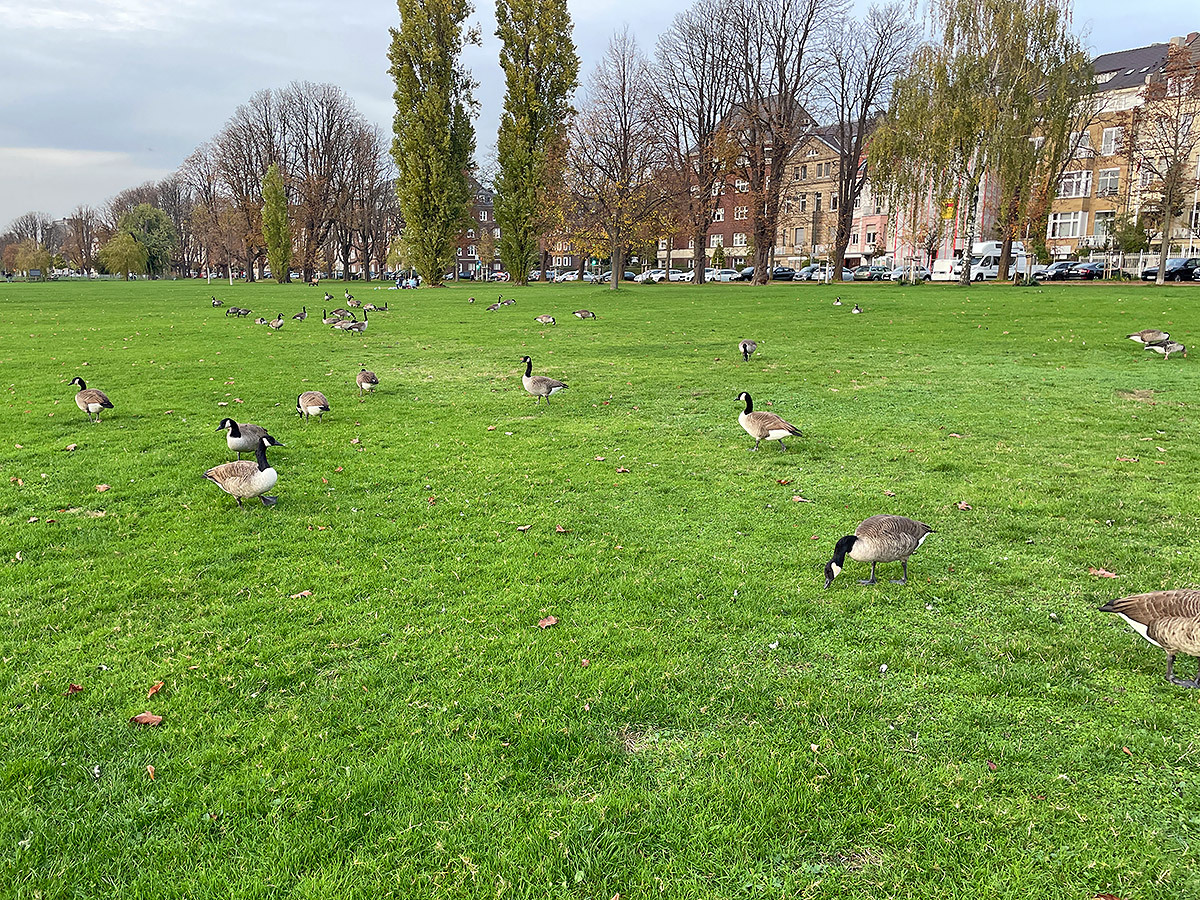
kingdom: Animalia
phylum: Chordata
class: Aves
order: Anseriformes
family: Anatidae
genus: Branta
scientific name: Branta canadensis
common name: Canada goose
